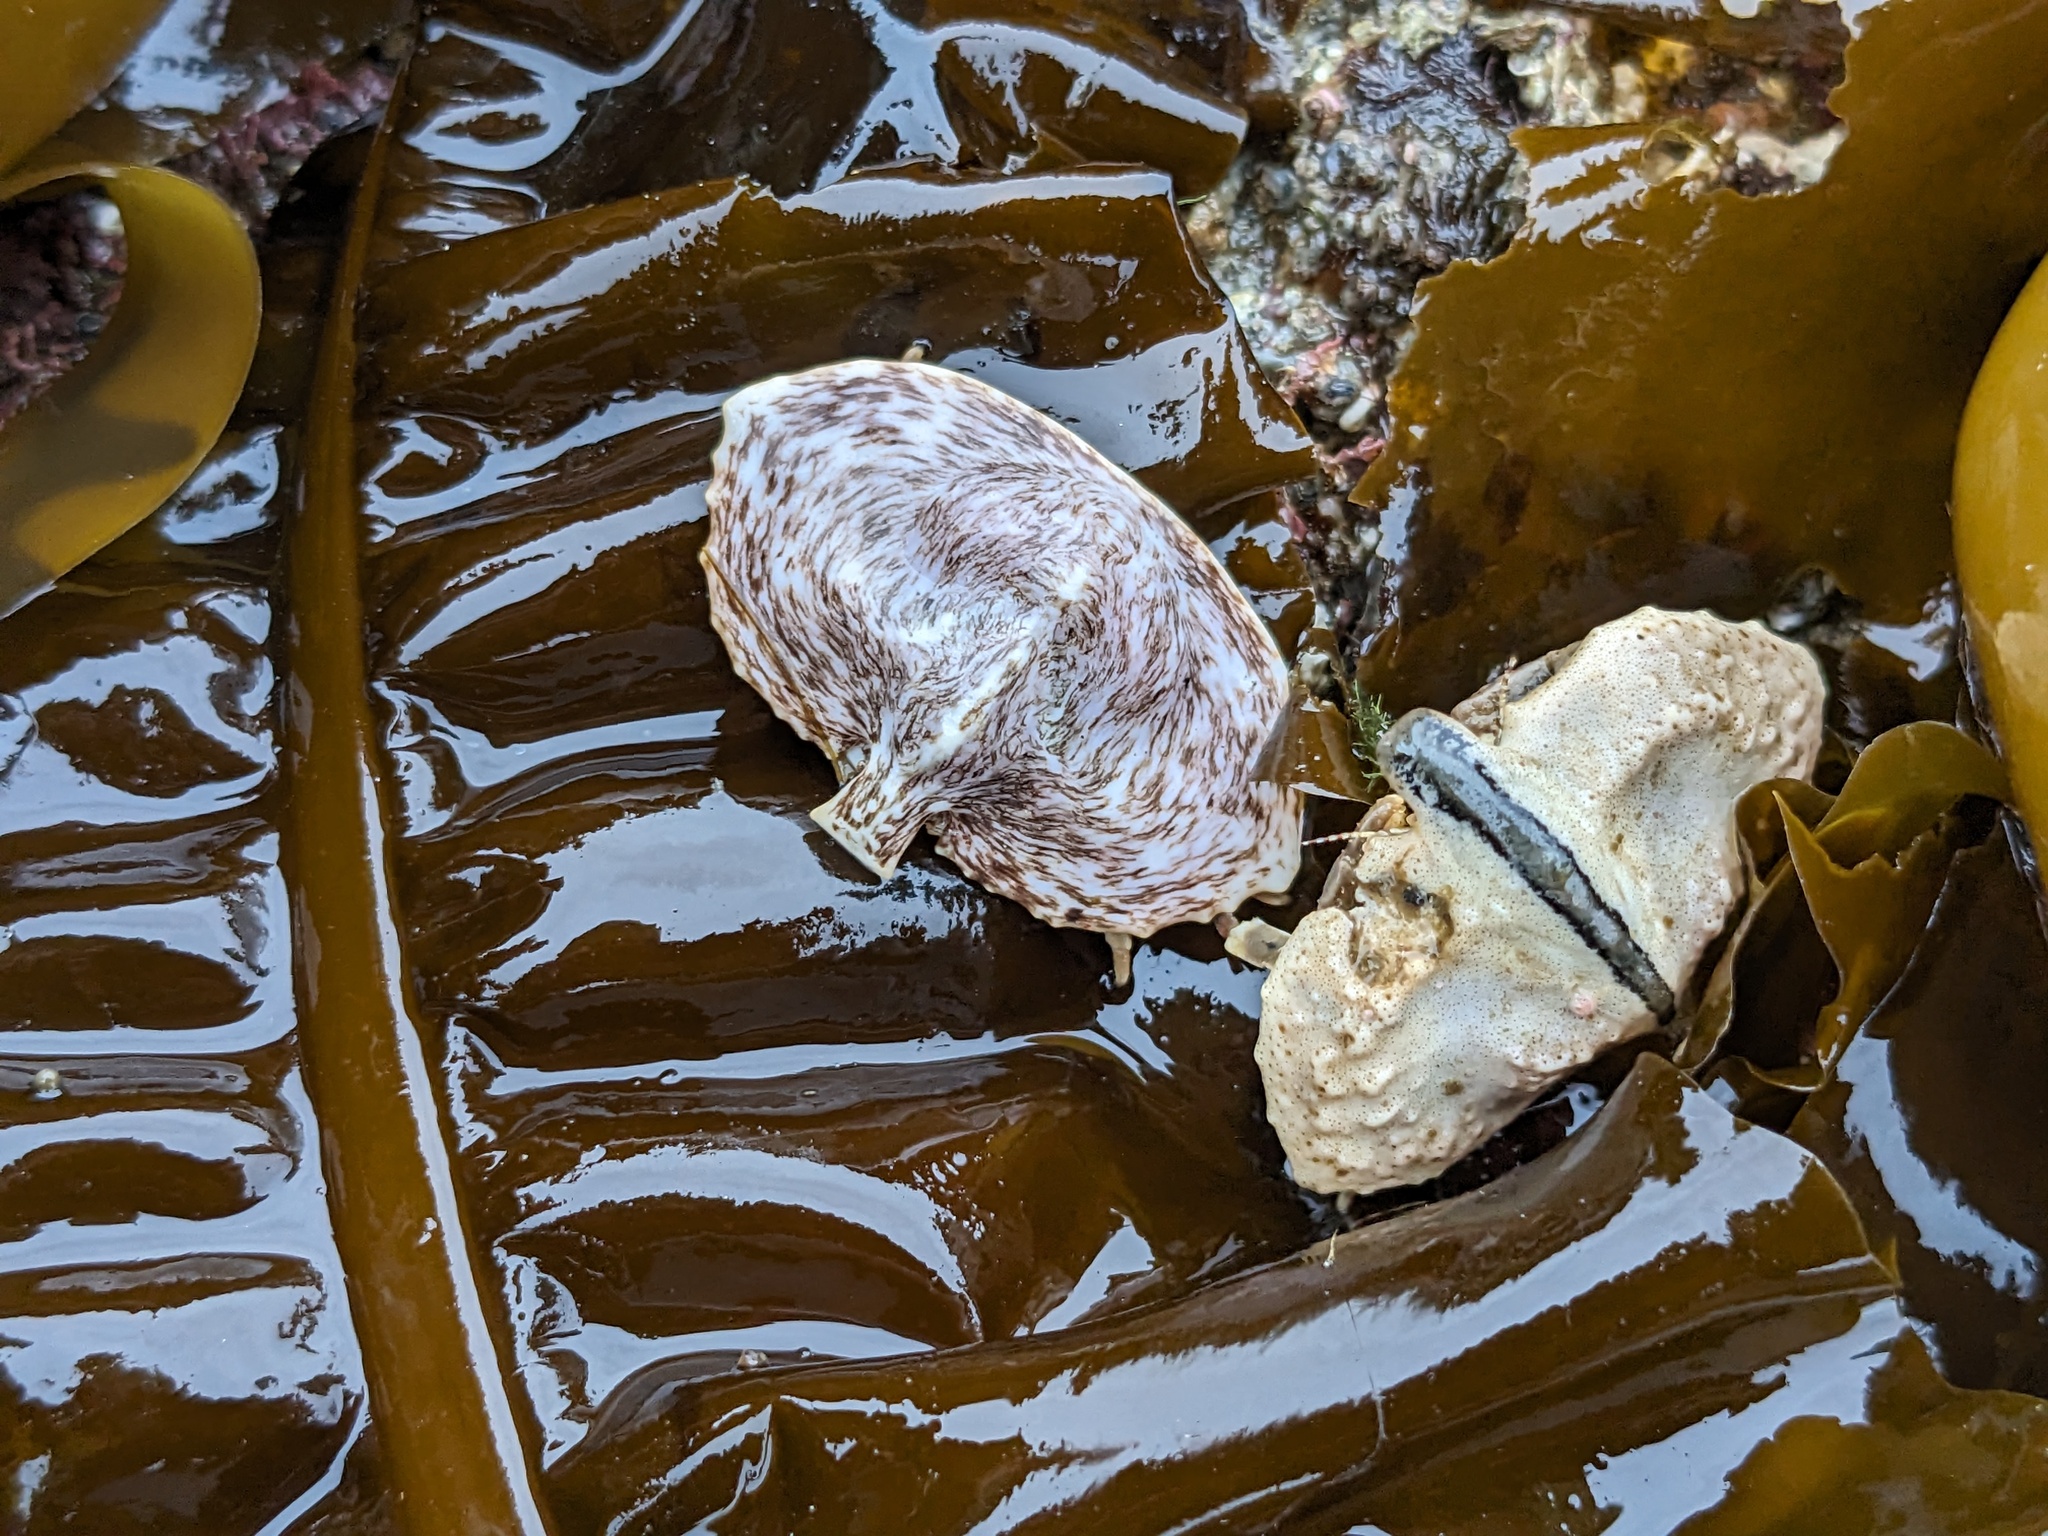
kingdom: Animalia
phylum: Arthropoda
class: Malacostraca
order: Decapoda
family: Lithodidae
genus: Cryptolithodes
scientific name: Cryptolithodes sitchensis
